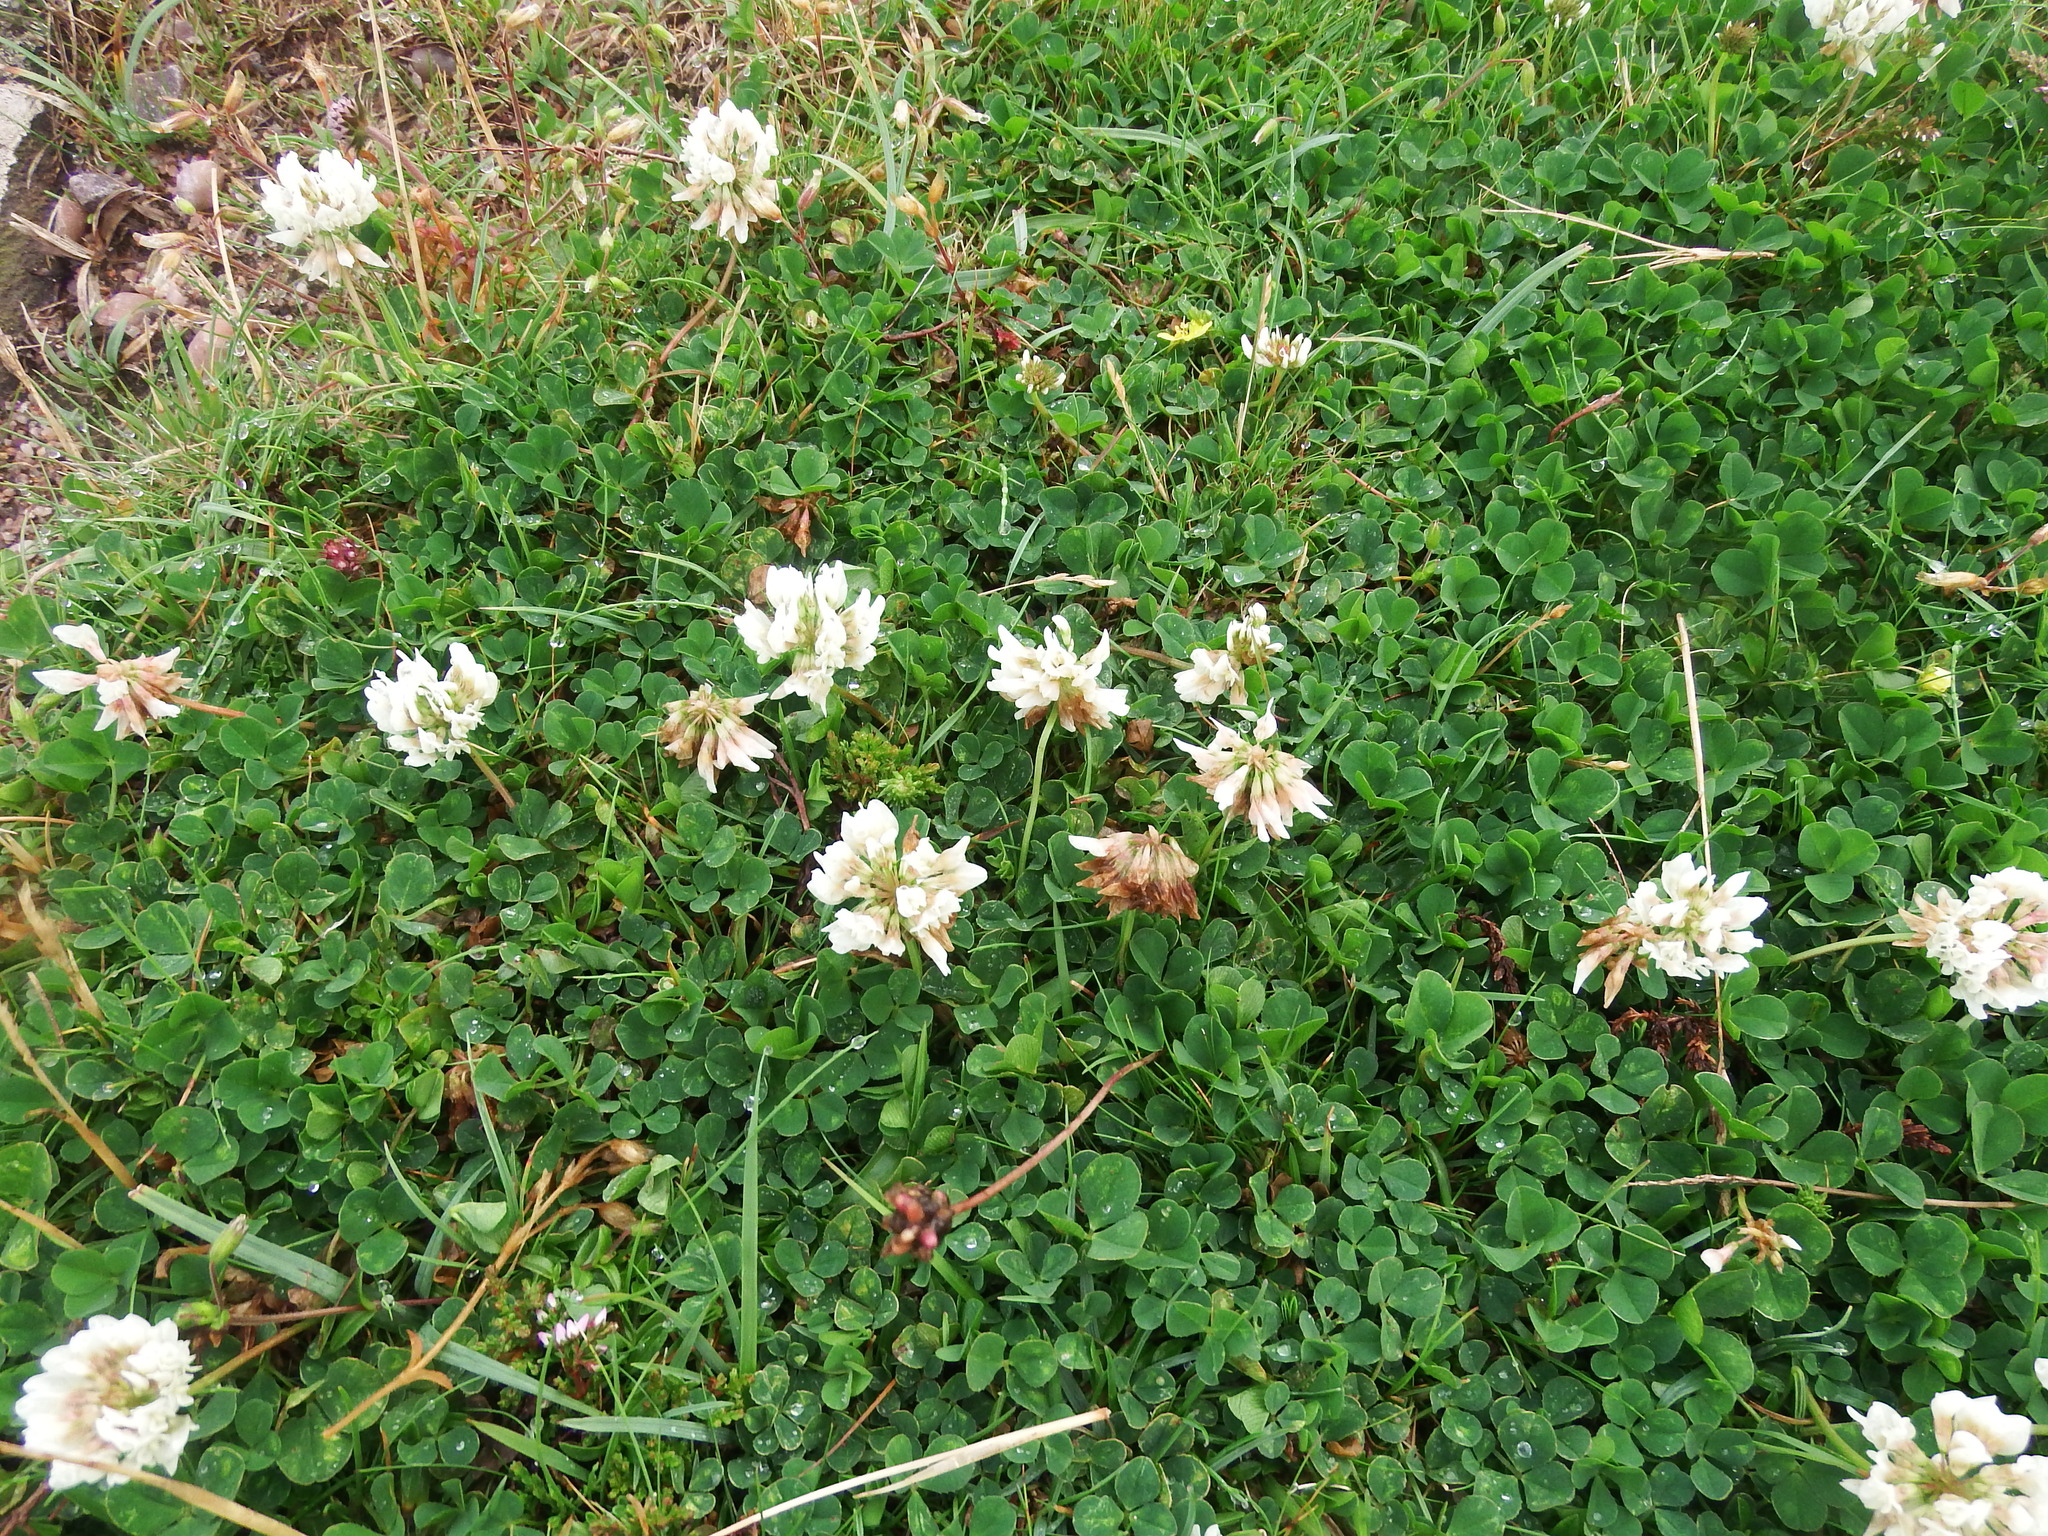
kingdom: Plantae
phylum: Tracheophyta
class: Magnoliopsida
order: Fabales
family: Fabaceae
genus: Trifolium
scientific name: Trifolium repens
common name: White clover
